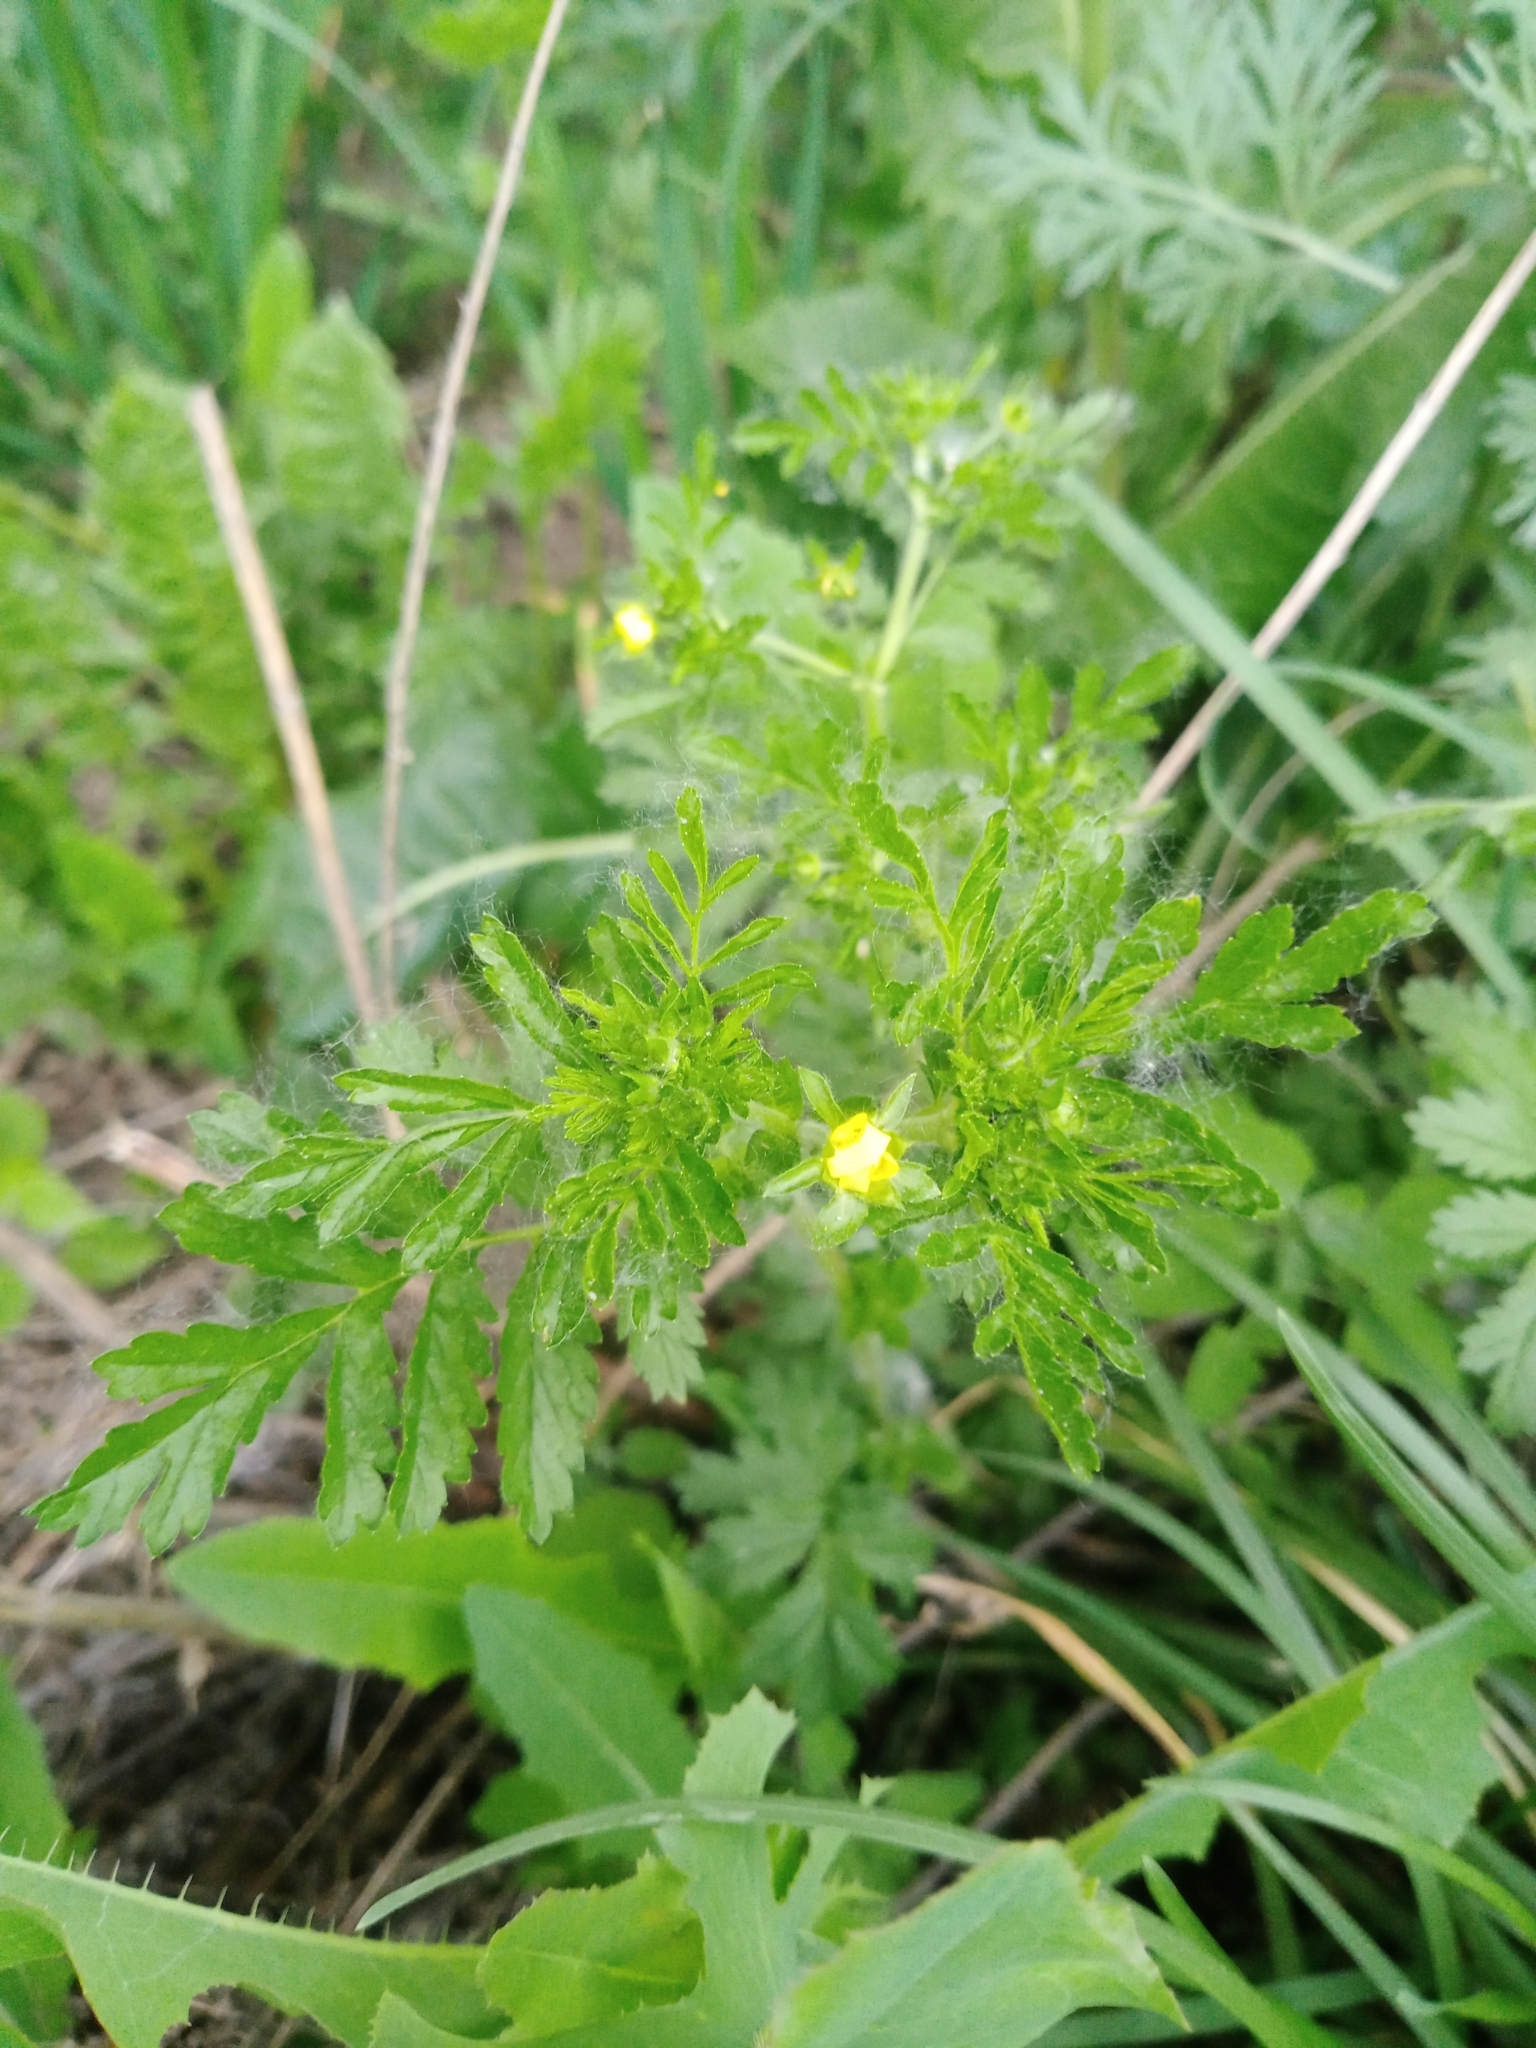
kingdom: Plantae
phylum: Tracheophyta
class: Magnoliopsida
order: Rosales
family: Rosaceae
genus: Potentilla
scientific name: Potentilla supina
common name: Prostrate cinquefoil
